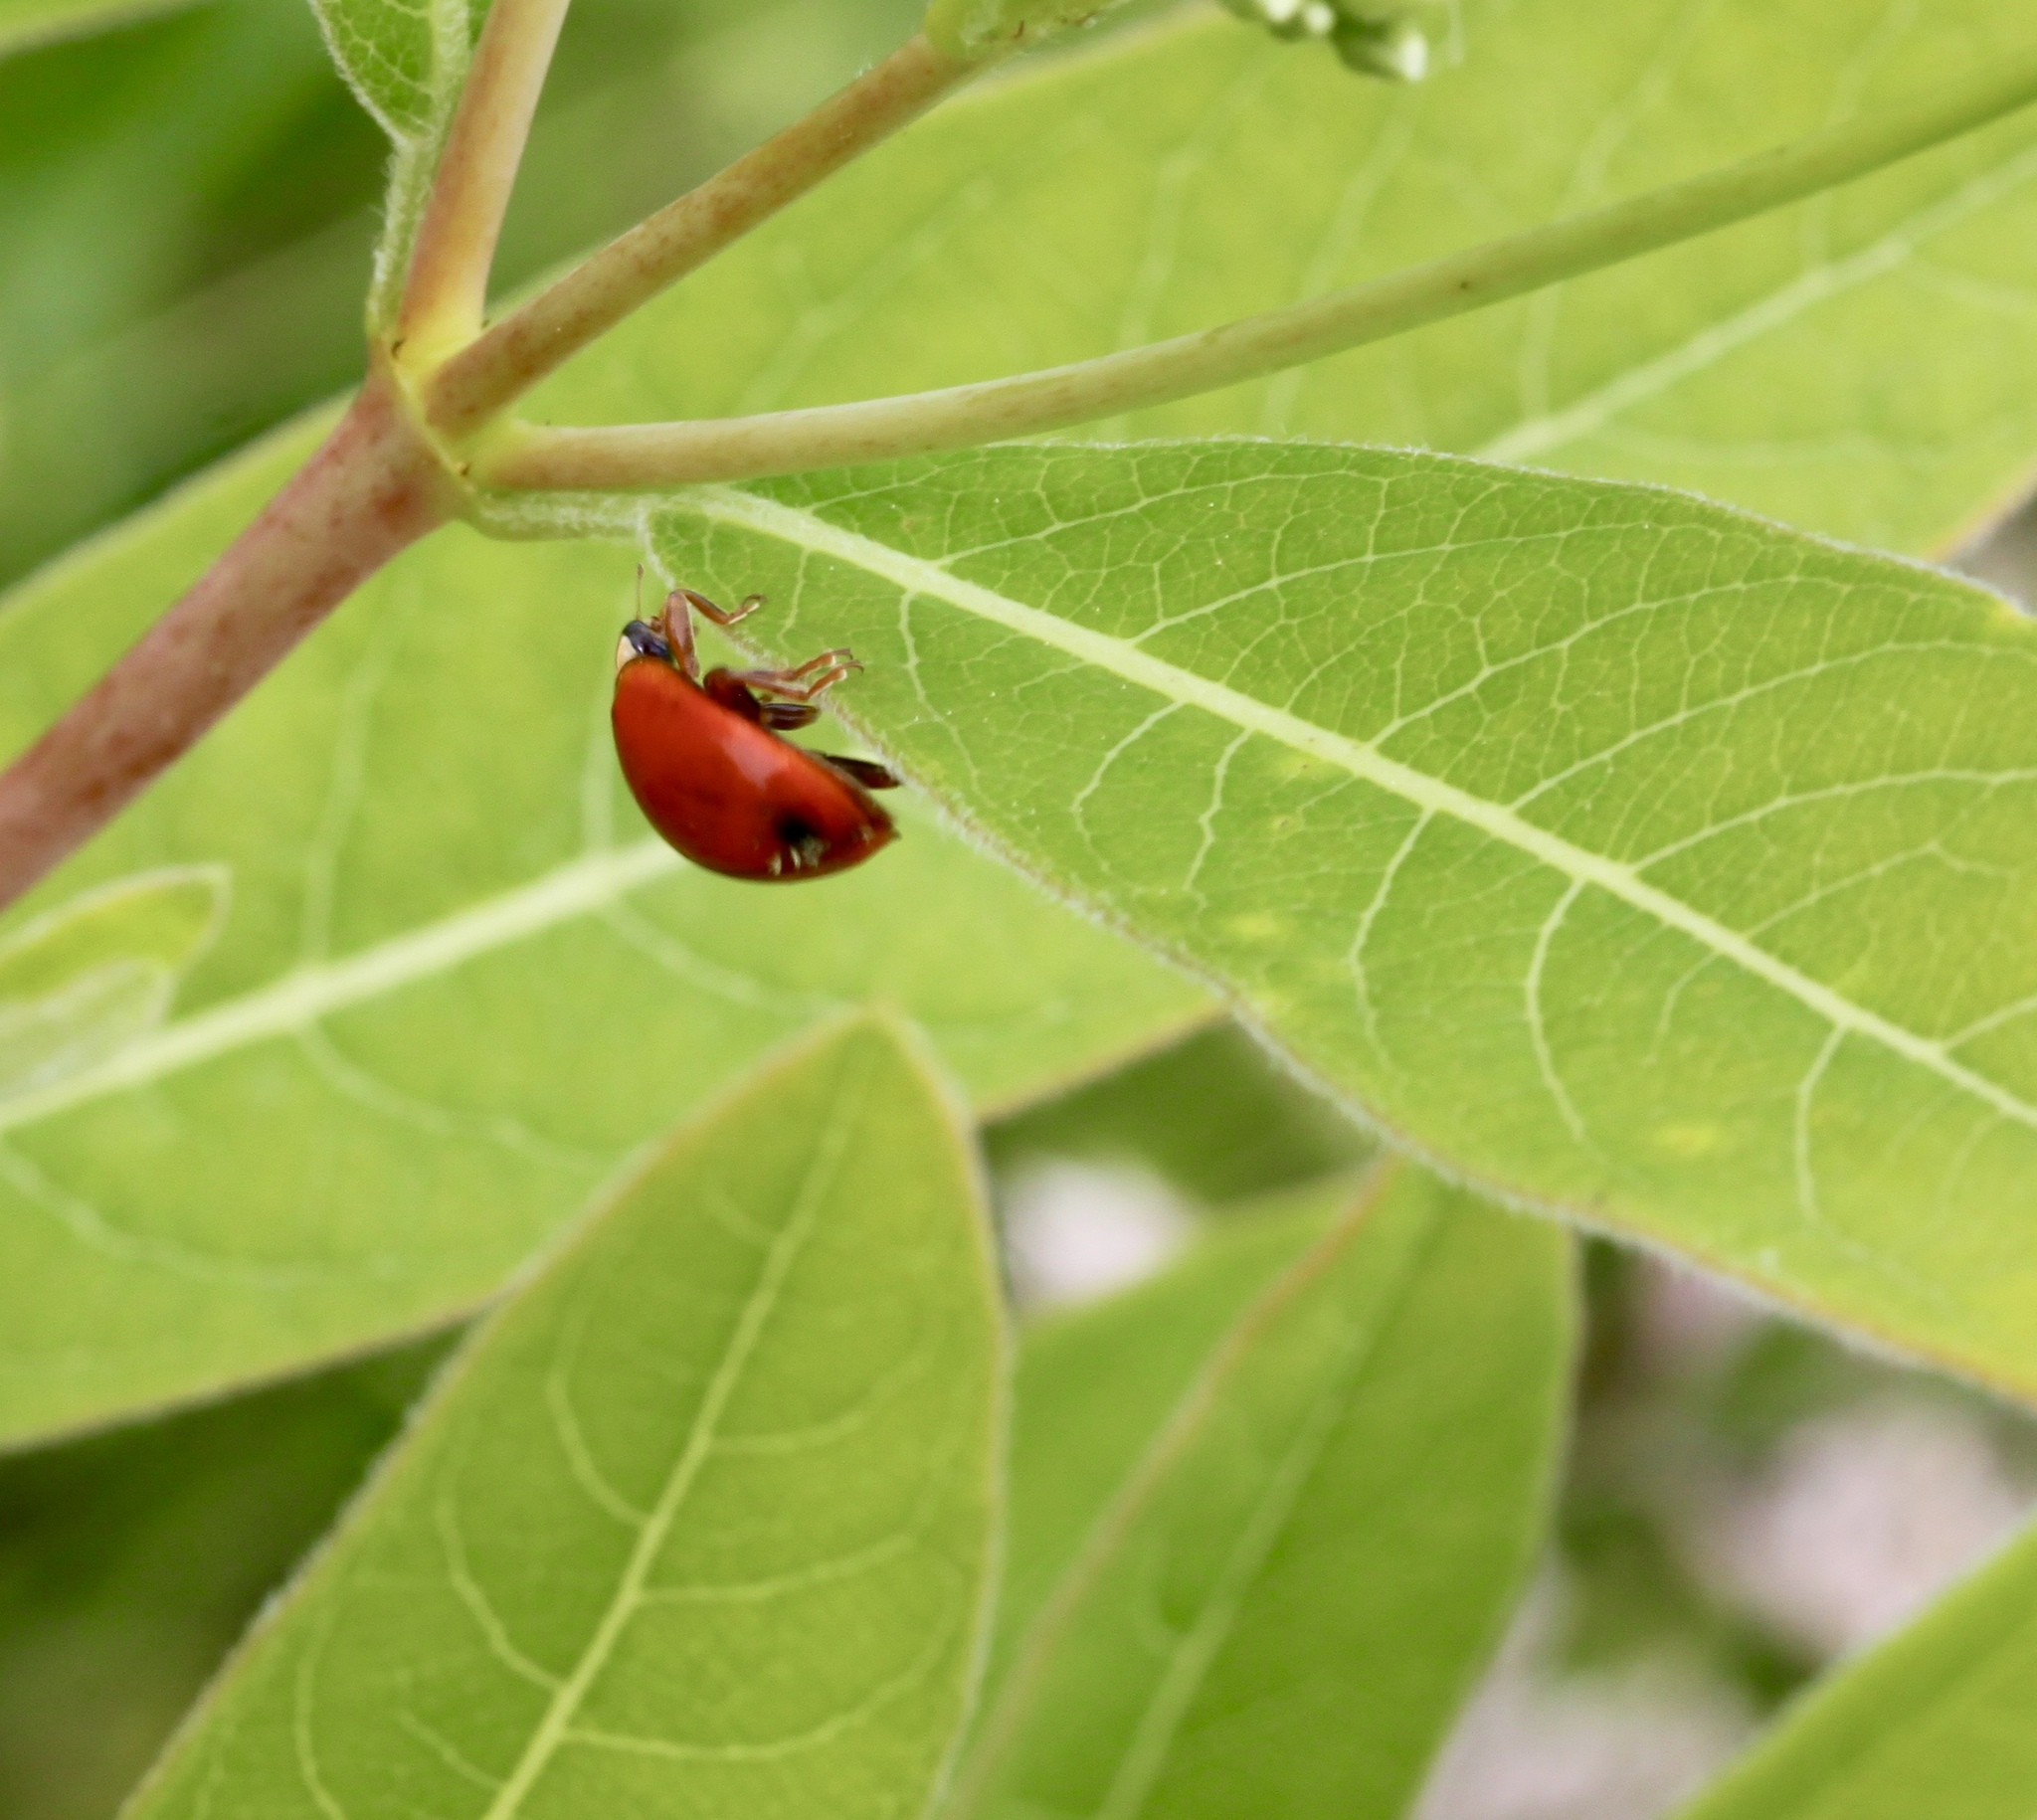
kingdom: Animalia
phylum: Arthropoda
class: Insecta
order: Coleoptera
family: Coccinellidae
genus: Harmonia
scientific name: Harmonia axyridis
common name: Harlequin ladybird
